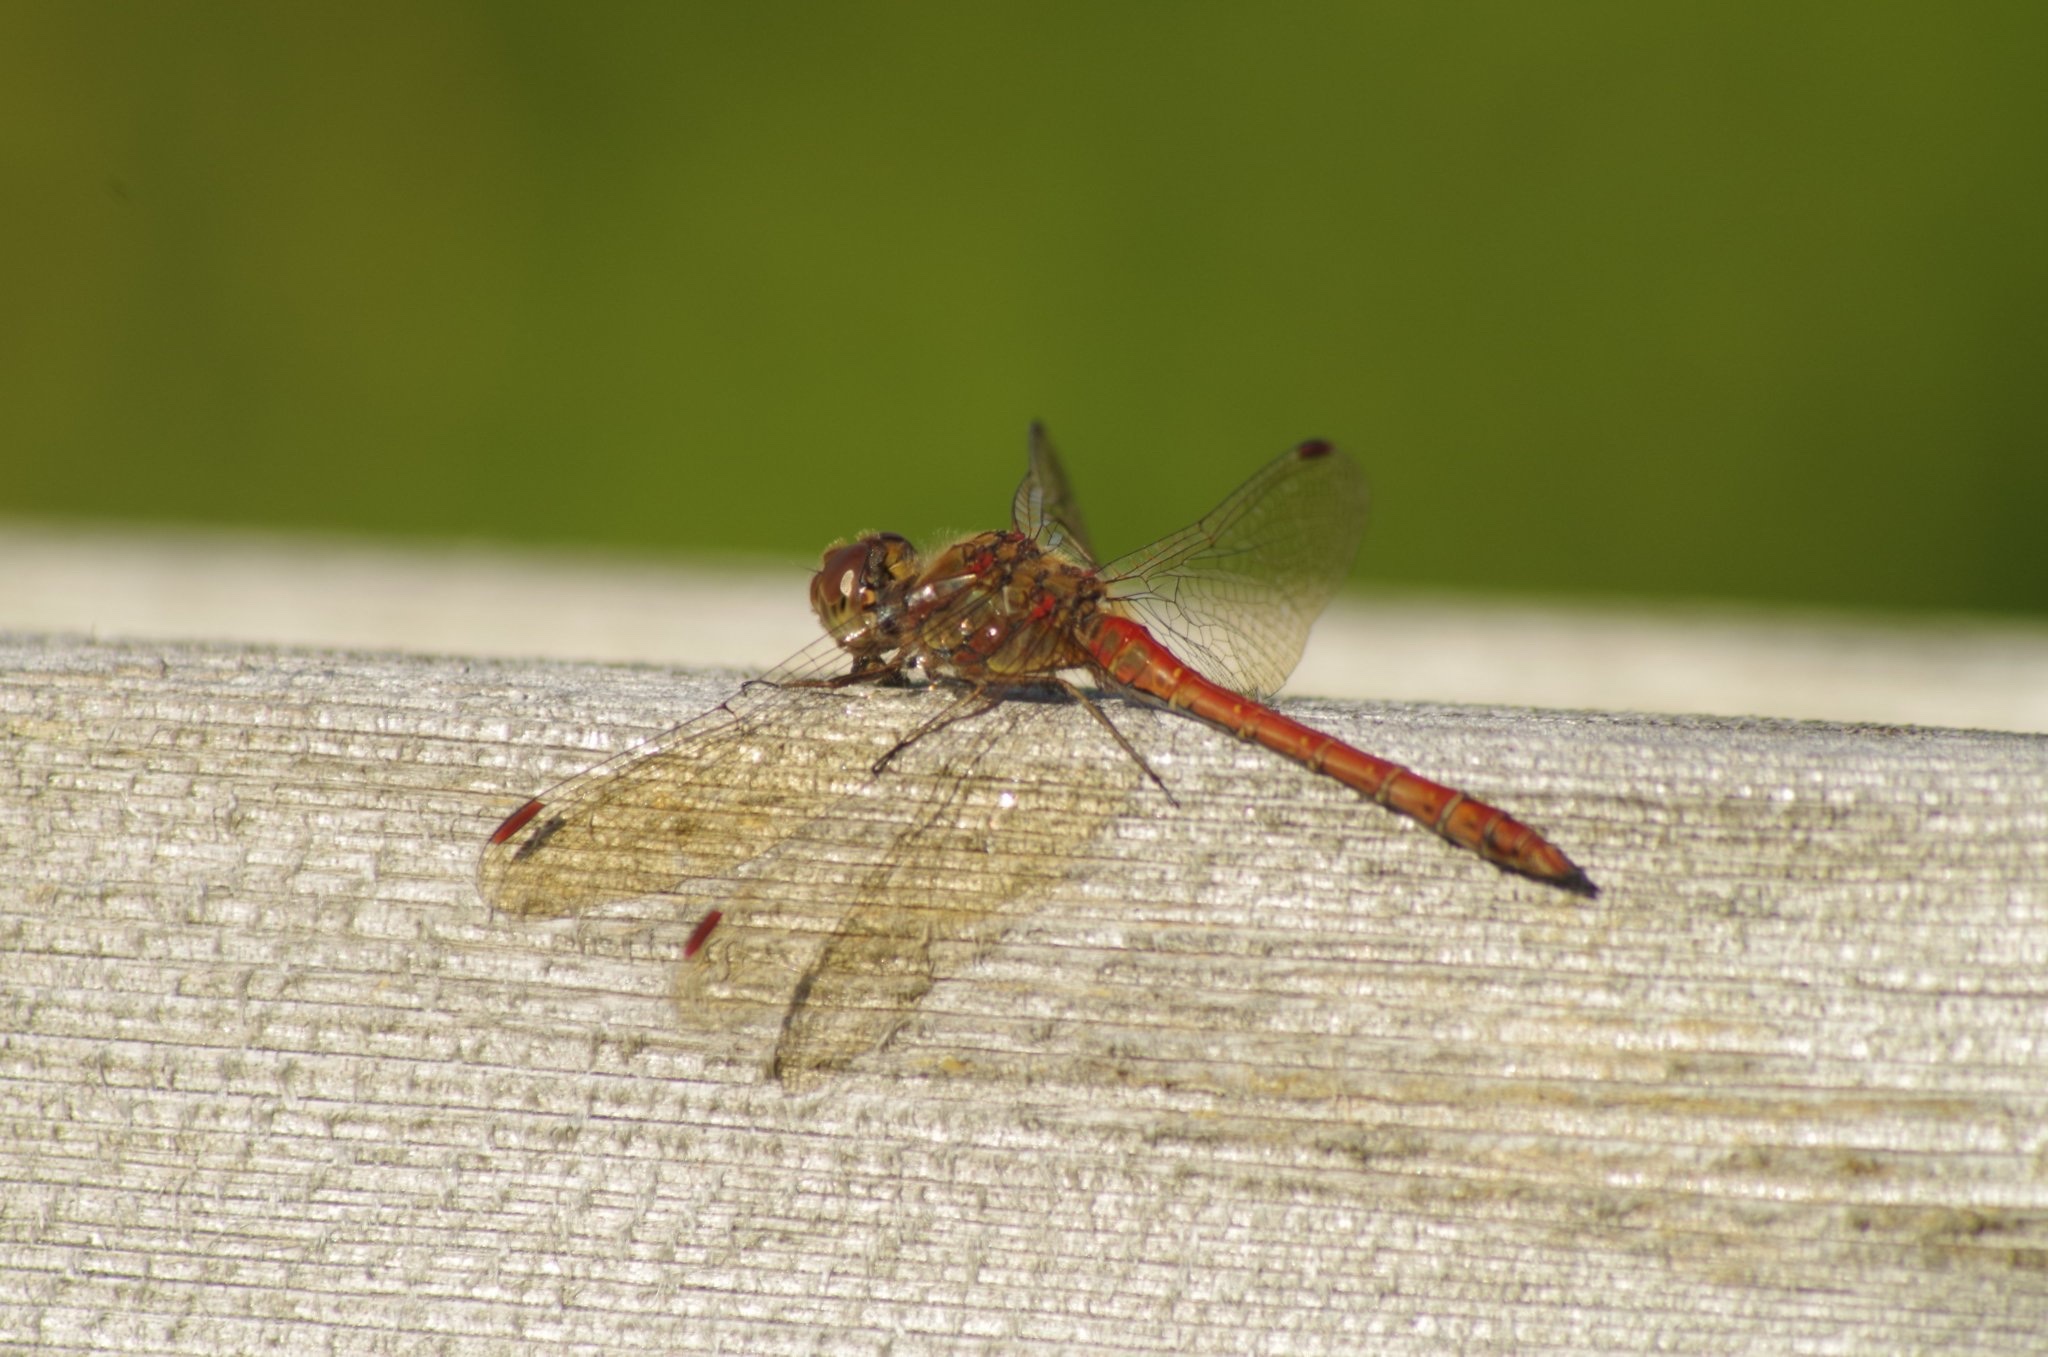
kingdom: Animalia
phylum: Arthropoda
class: Insecta
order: Odonata
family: Libellulidae
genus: Sympetrum
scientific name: Sympetrum striolatum
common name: Common darter
